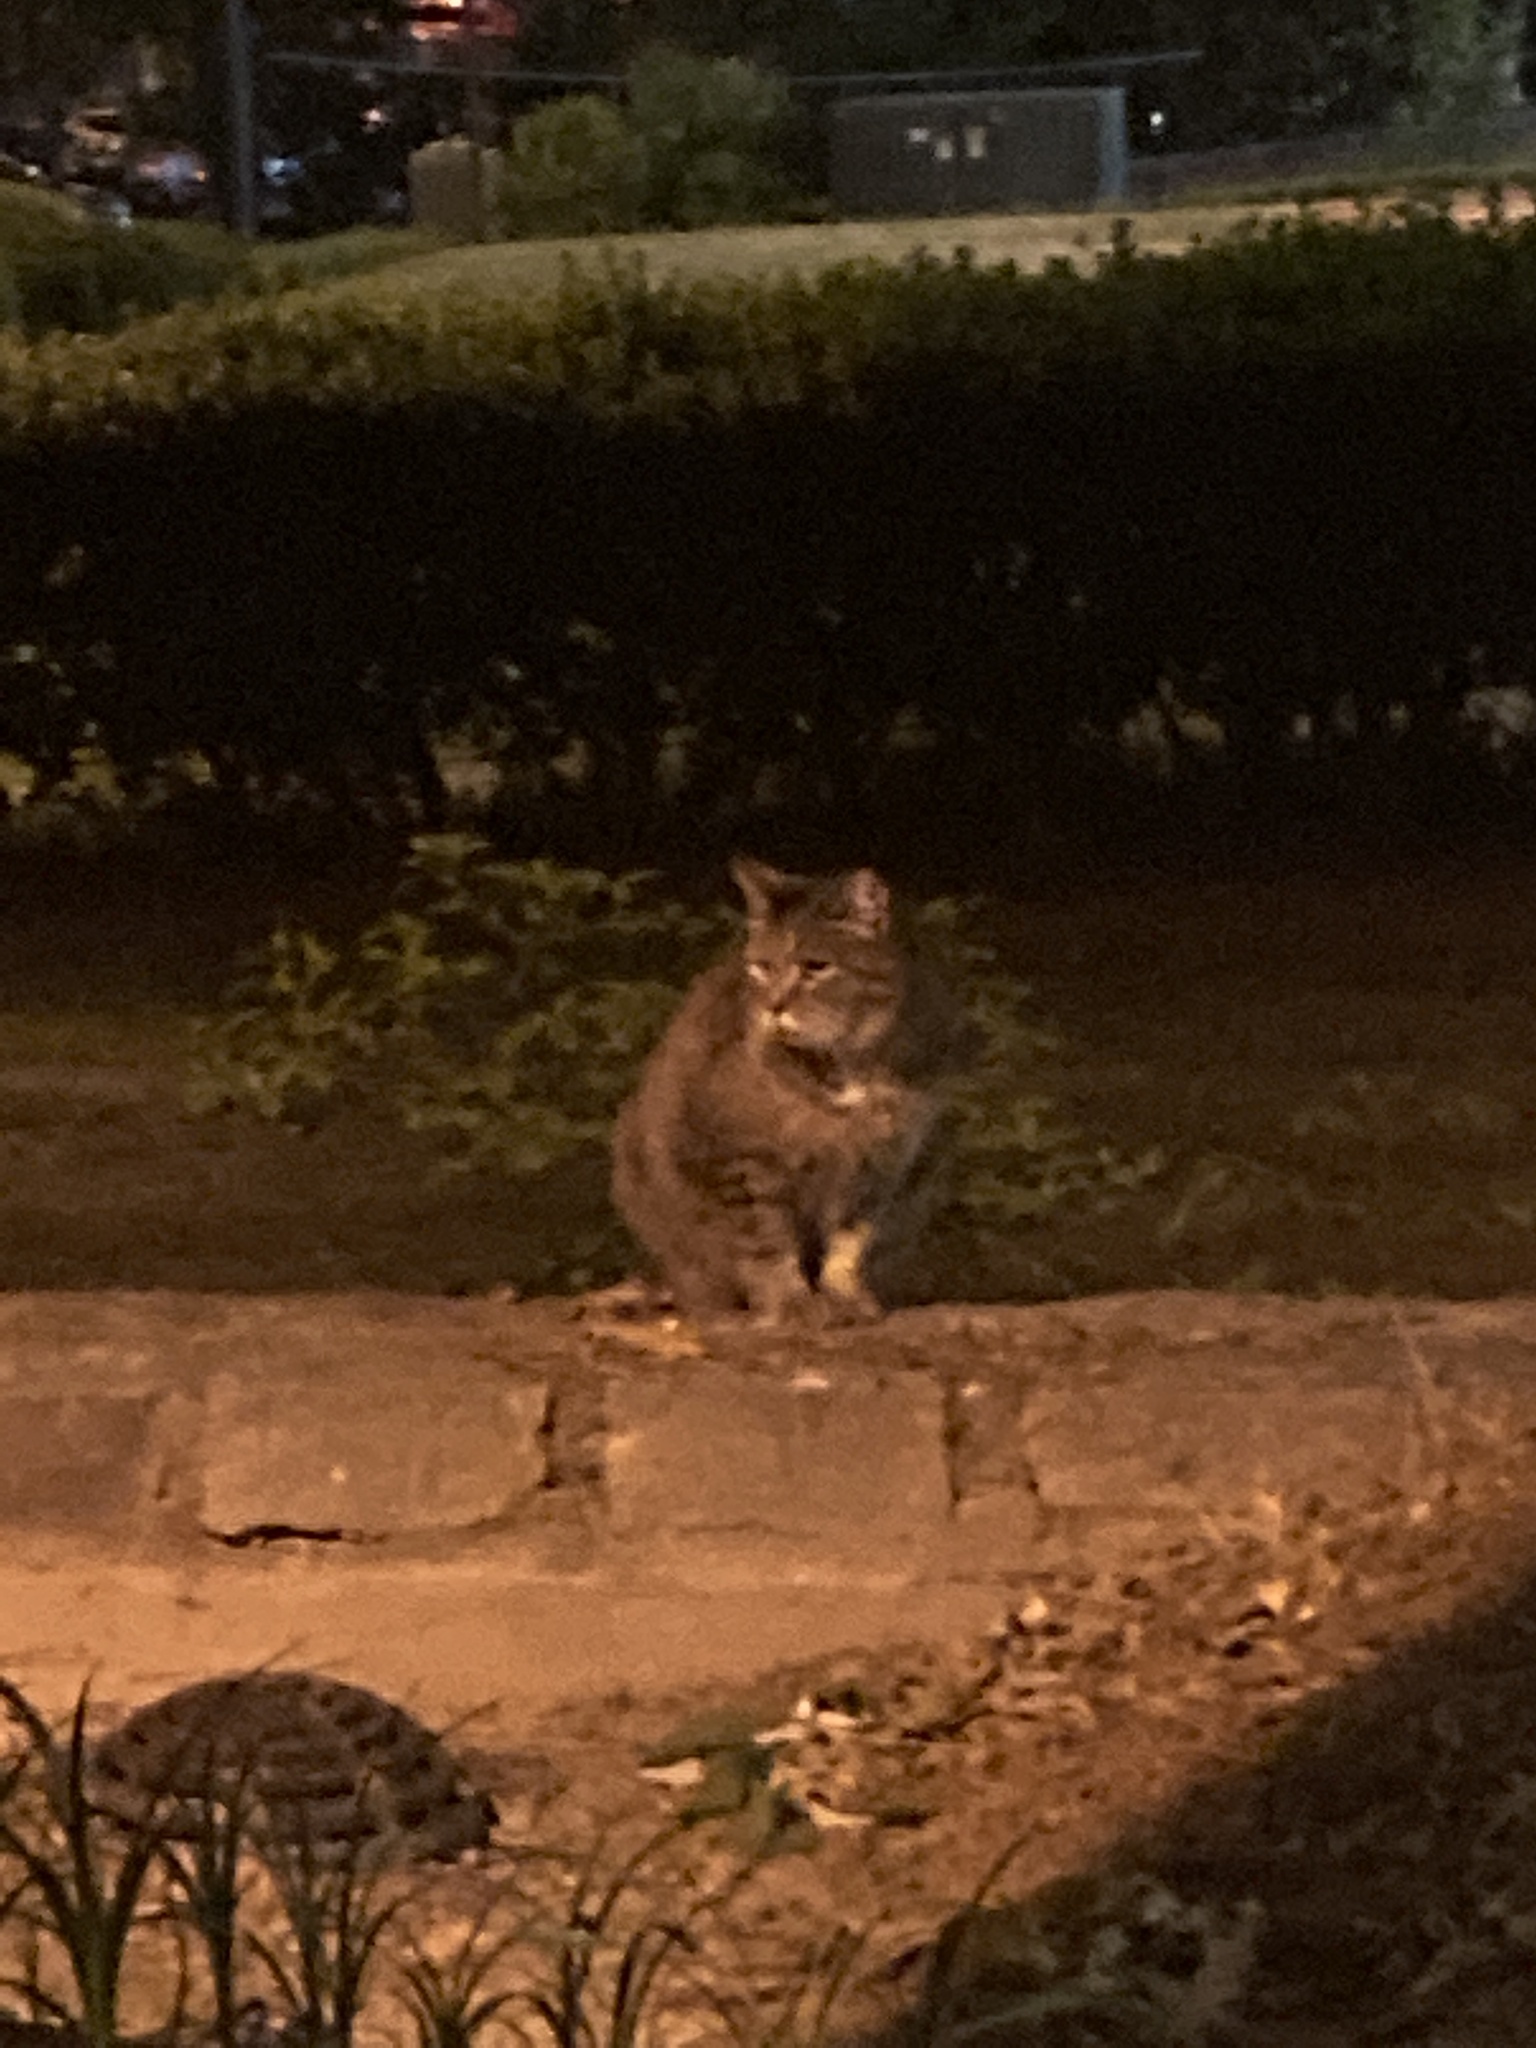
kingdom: Animalia
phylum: Chordata
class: Mammalia
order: Carnivora
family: Felidae
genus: Felis
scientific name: Felis catus
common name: Domestic cat
